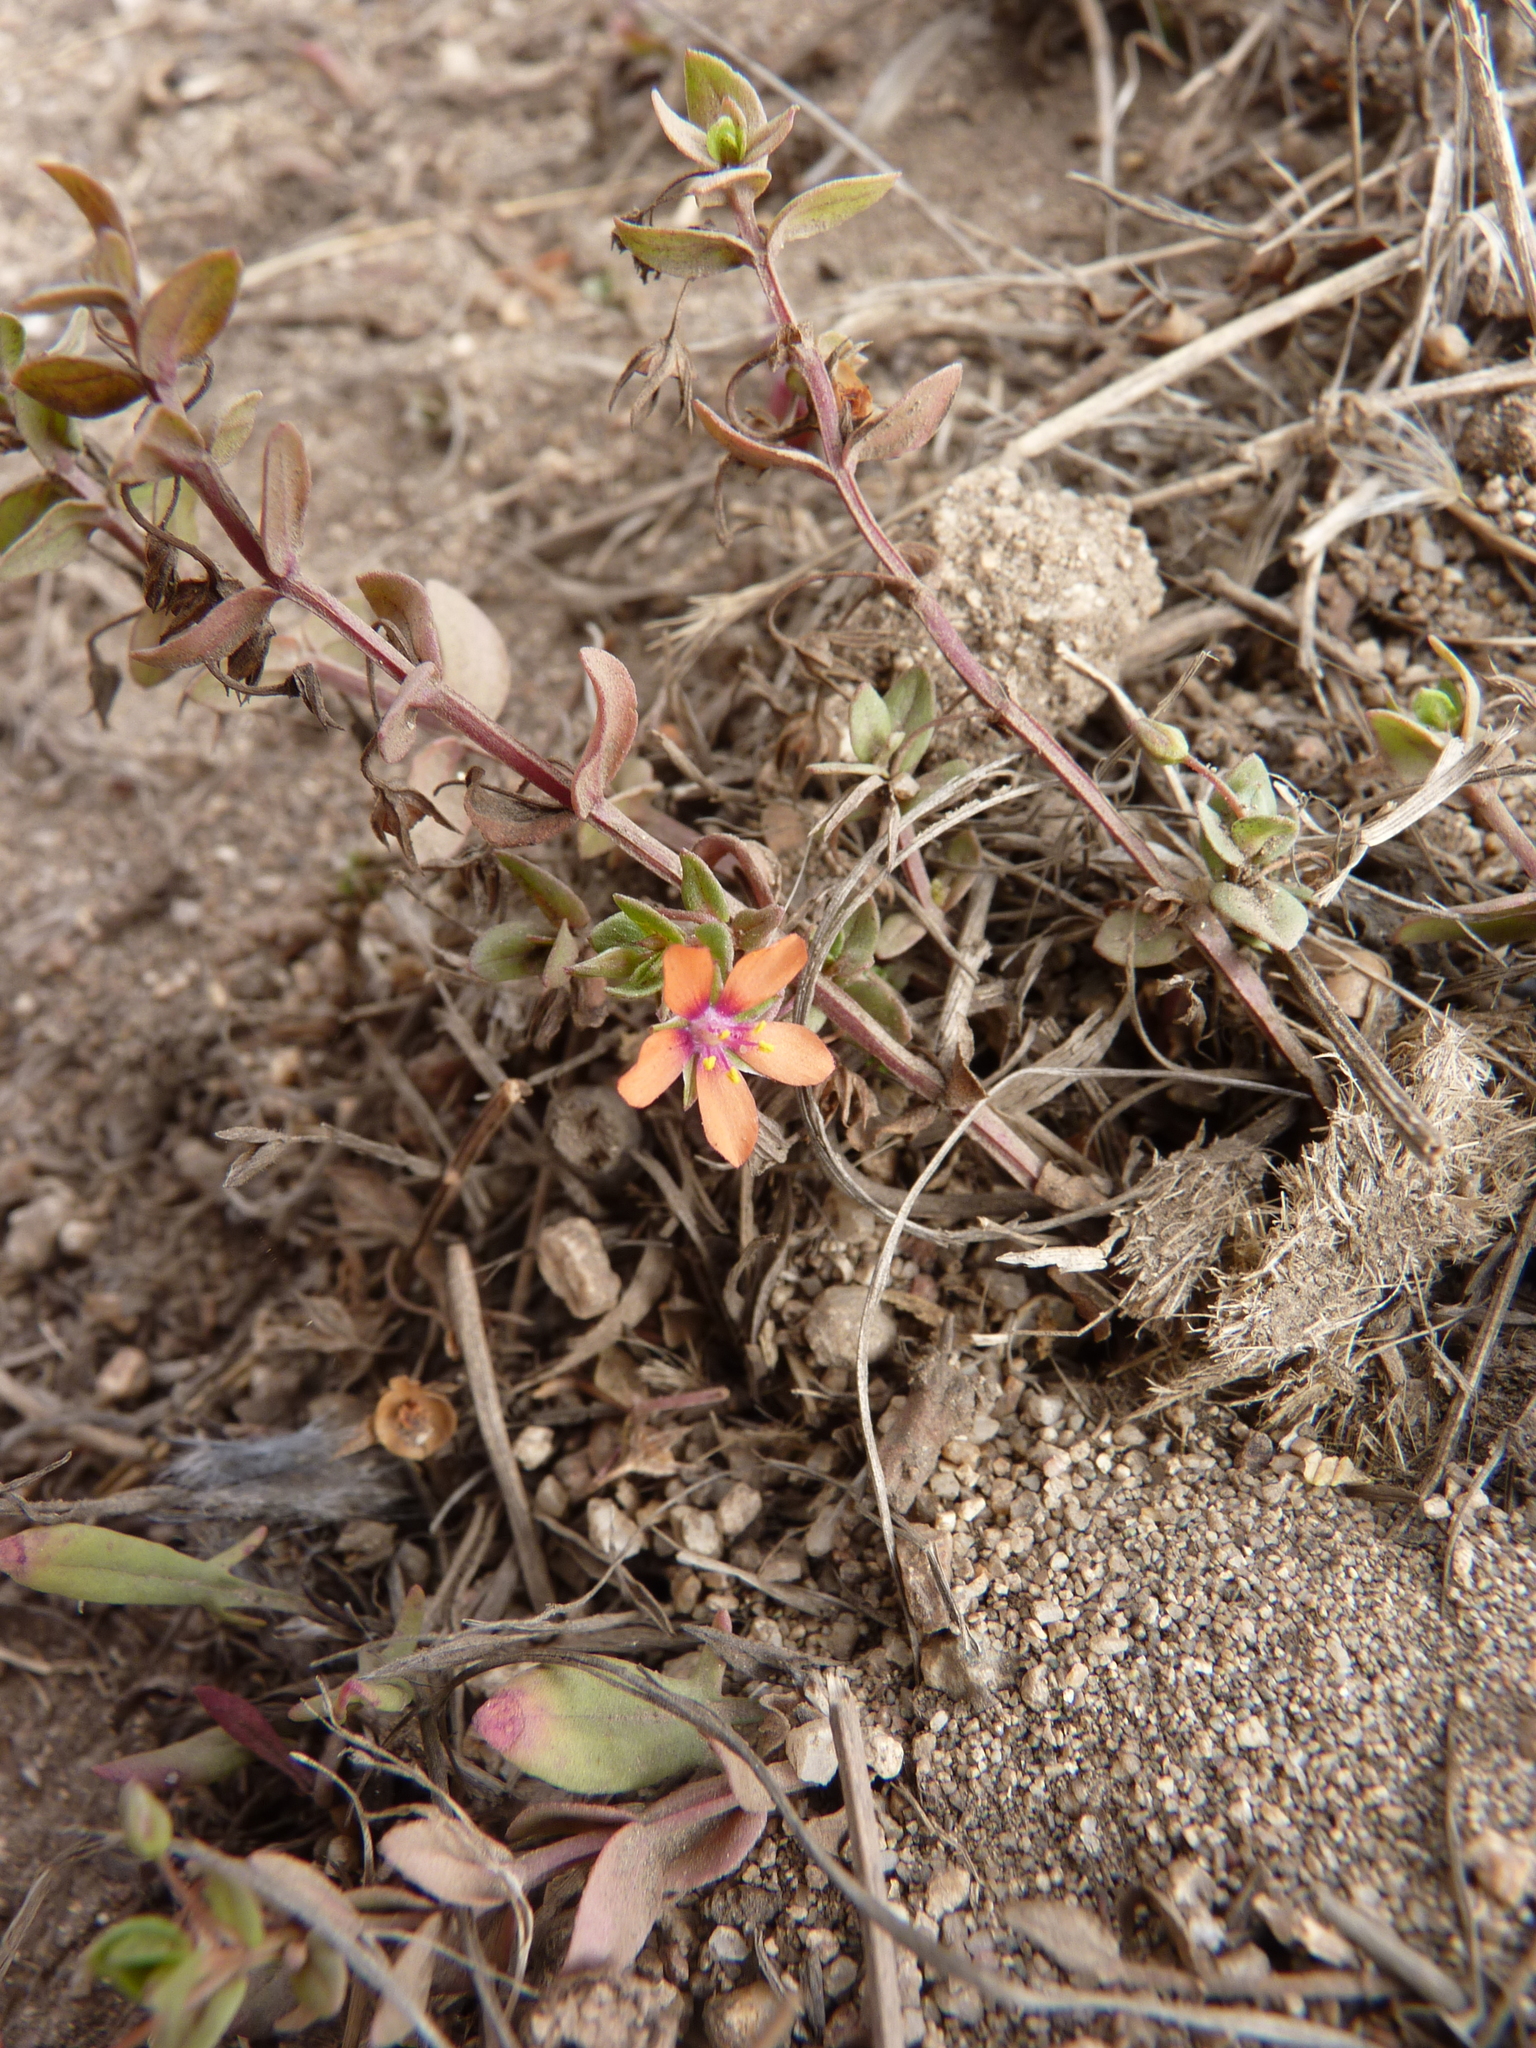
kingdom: Plantae
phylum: Tracheophyta
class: Magnoliopsida
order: Ericales
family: Primulaceae
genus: Lysimachia
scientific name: Lysimachia arvensis
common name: Scarlet pimpernel
